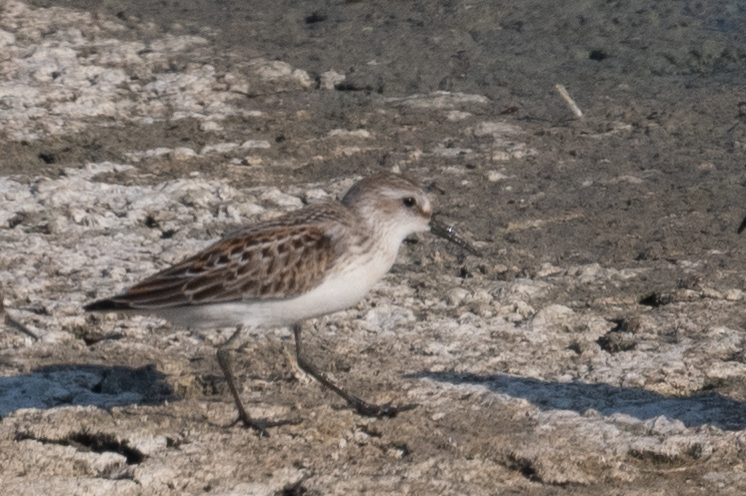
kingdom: Animalia
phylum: Chordata
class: Aves
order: Charadriiformes
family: Scolopacidae
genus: Calidris
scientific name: Calidris mauri
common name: Western sandpiper
